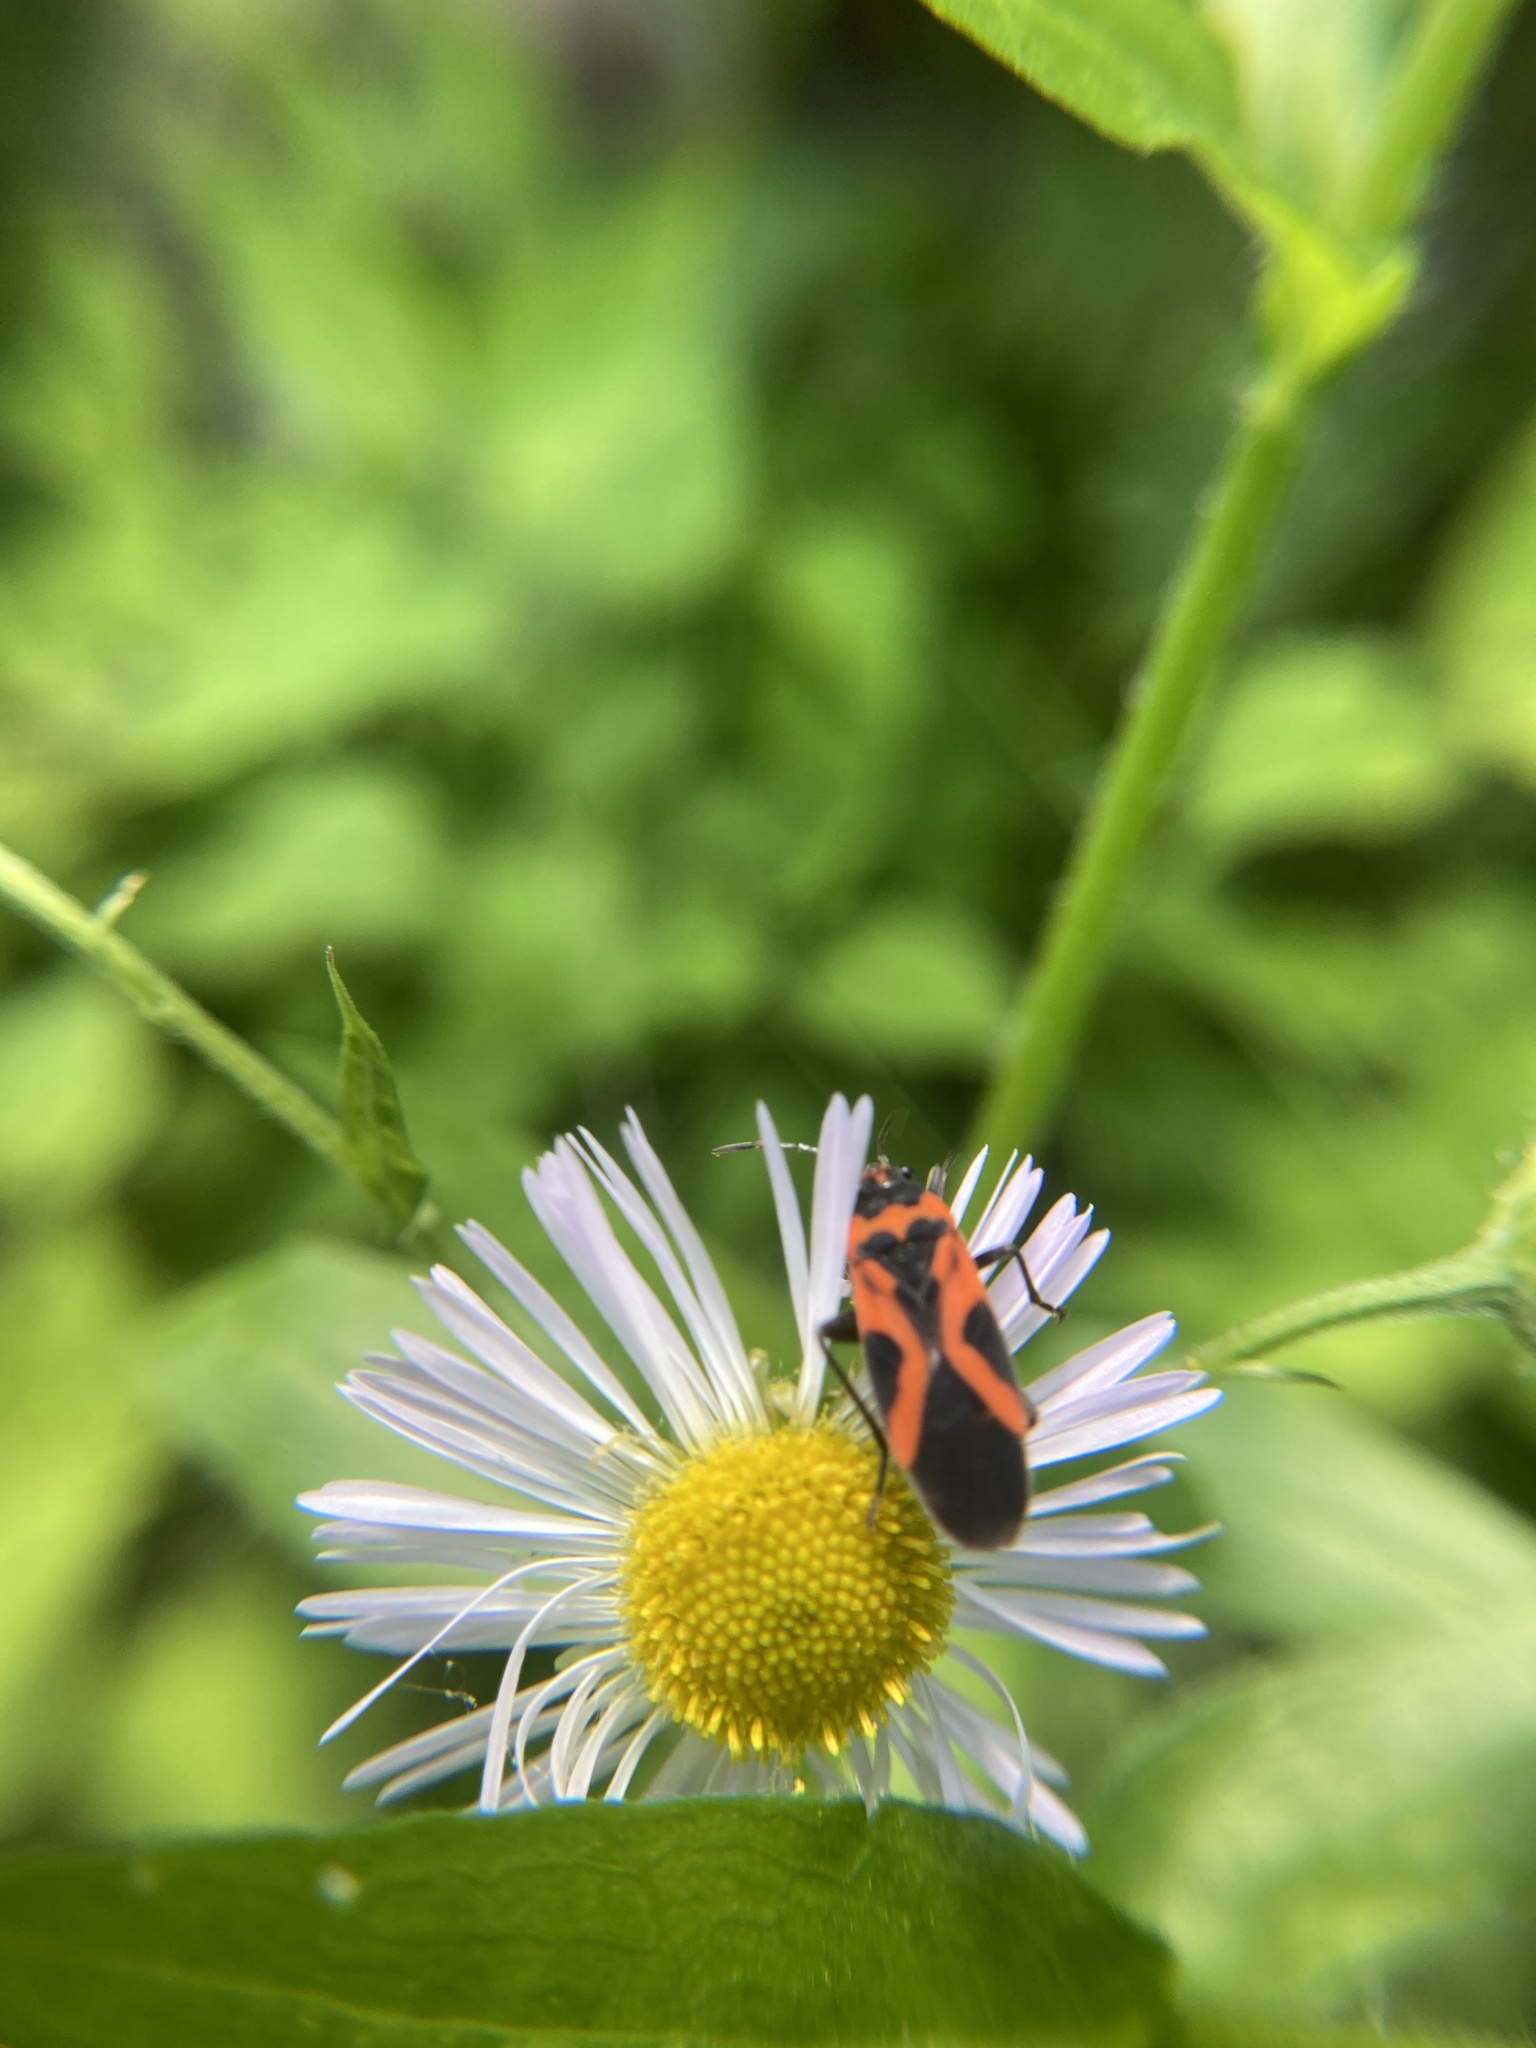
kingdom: Animalia
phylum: Arthropoda
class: Insecta
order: Hemiptera
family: Lygaeidae
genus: Lygaeus
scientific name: Lygaeus turcicus
